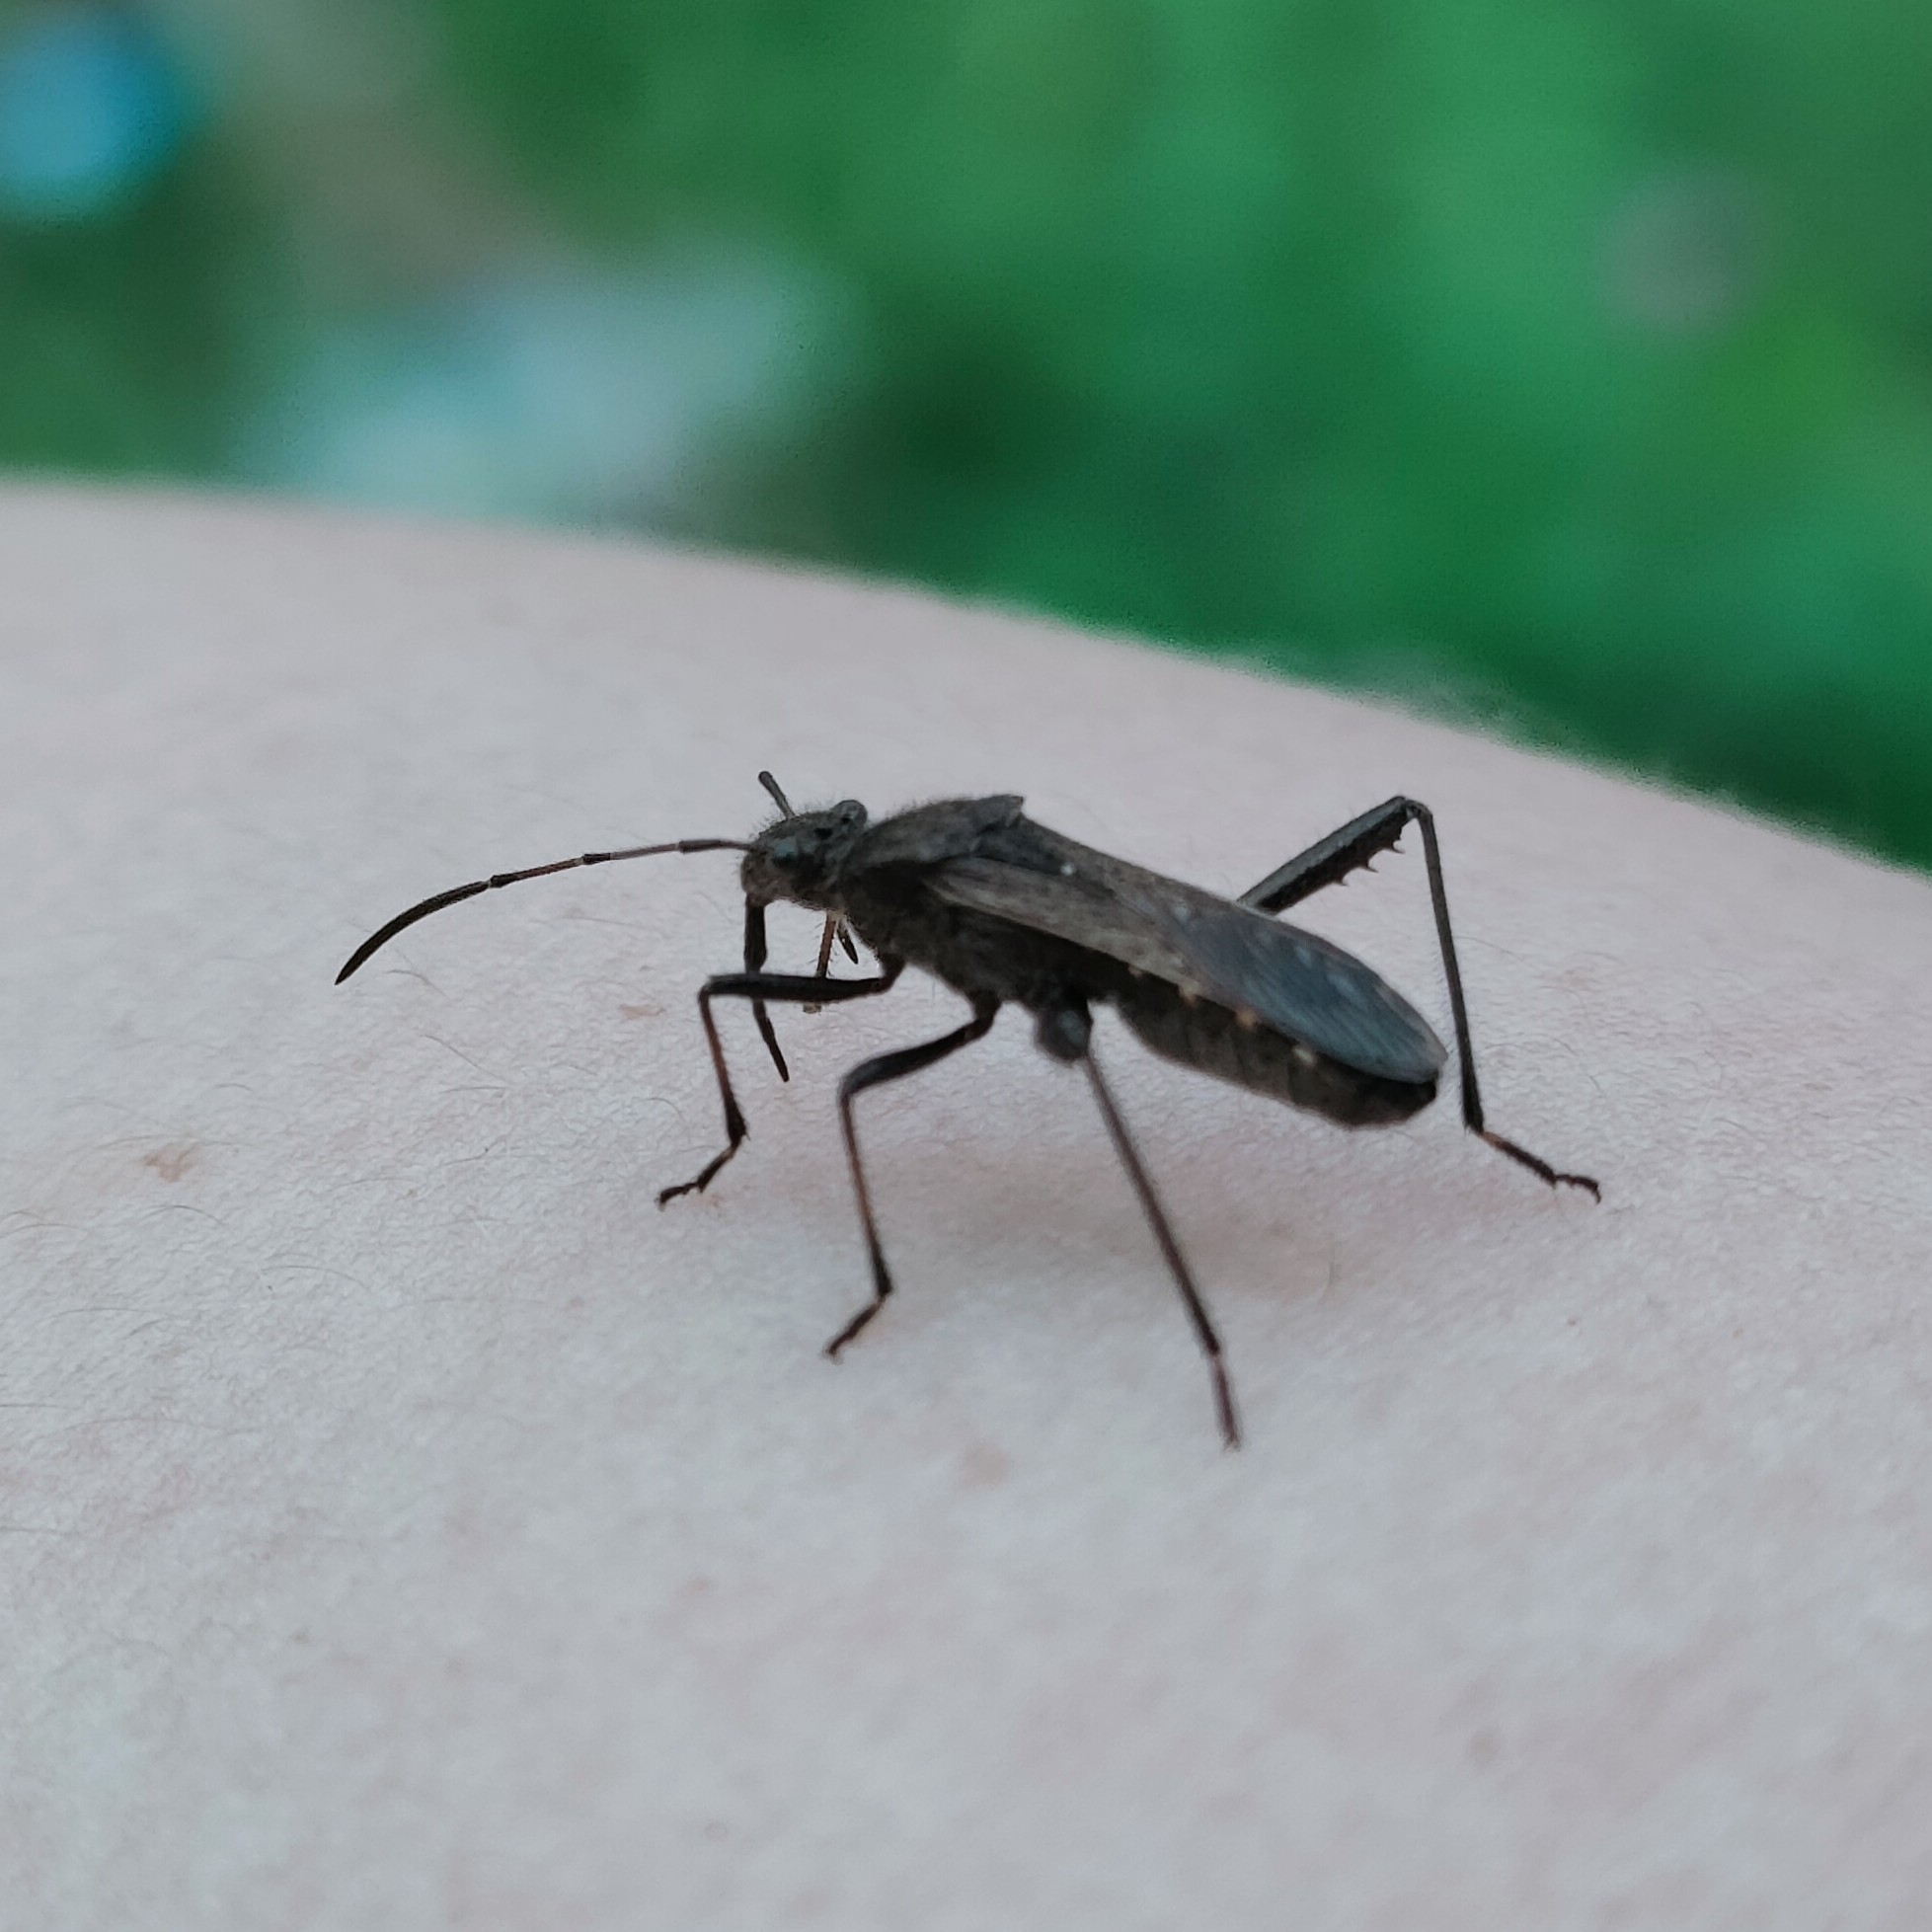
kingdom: Animalia
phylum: Arthropoda
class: Insecta
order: Hemiptera
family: Alydidae
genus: Alydus
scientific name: Alydus calcaratus
